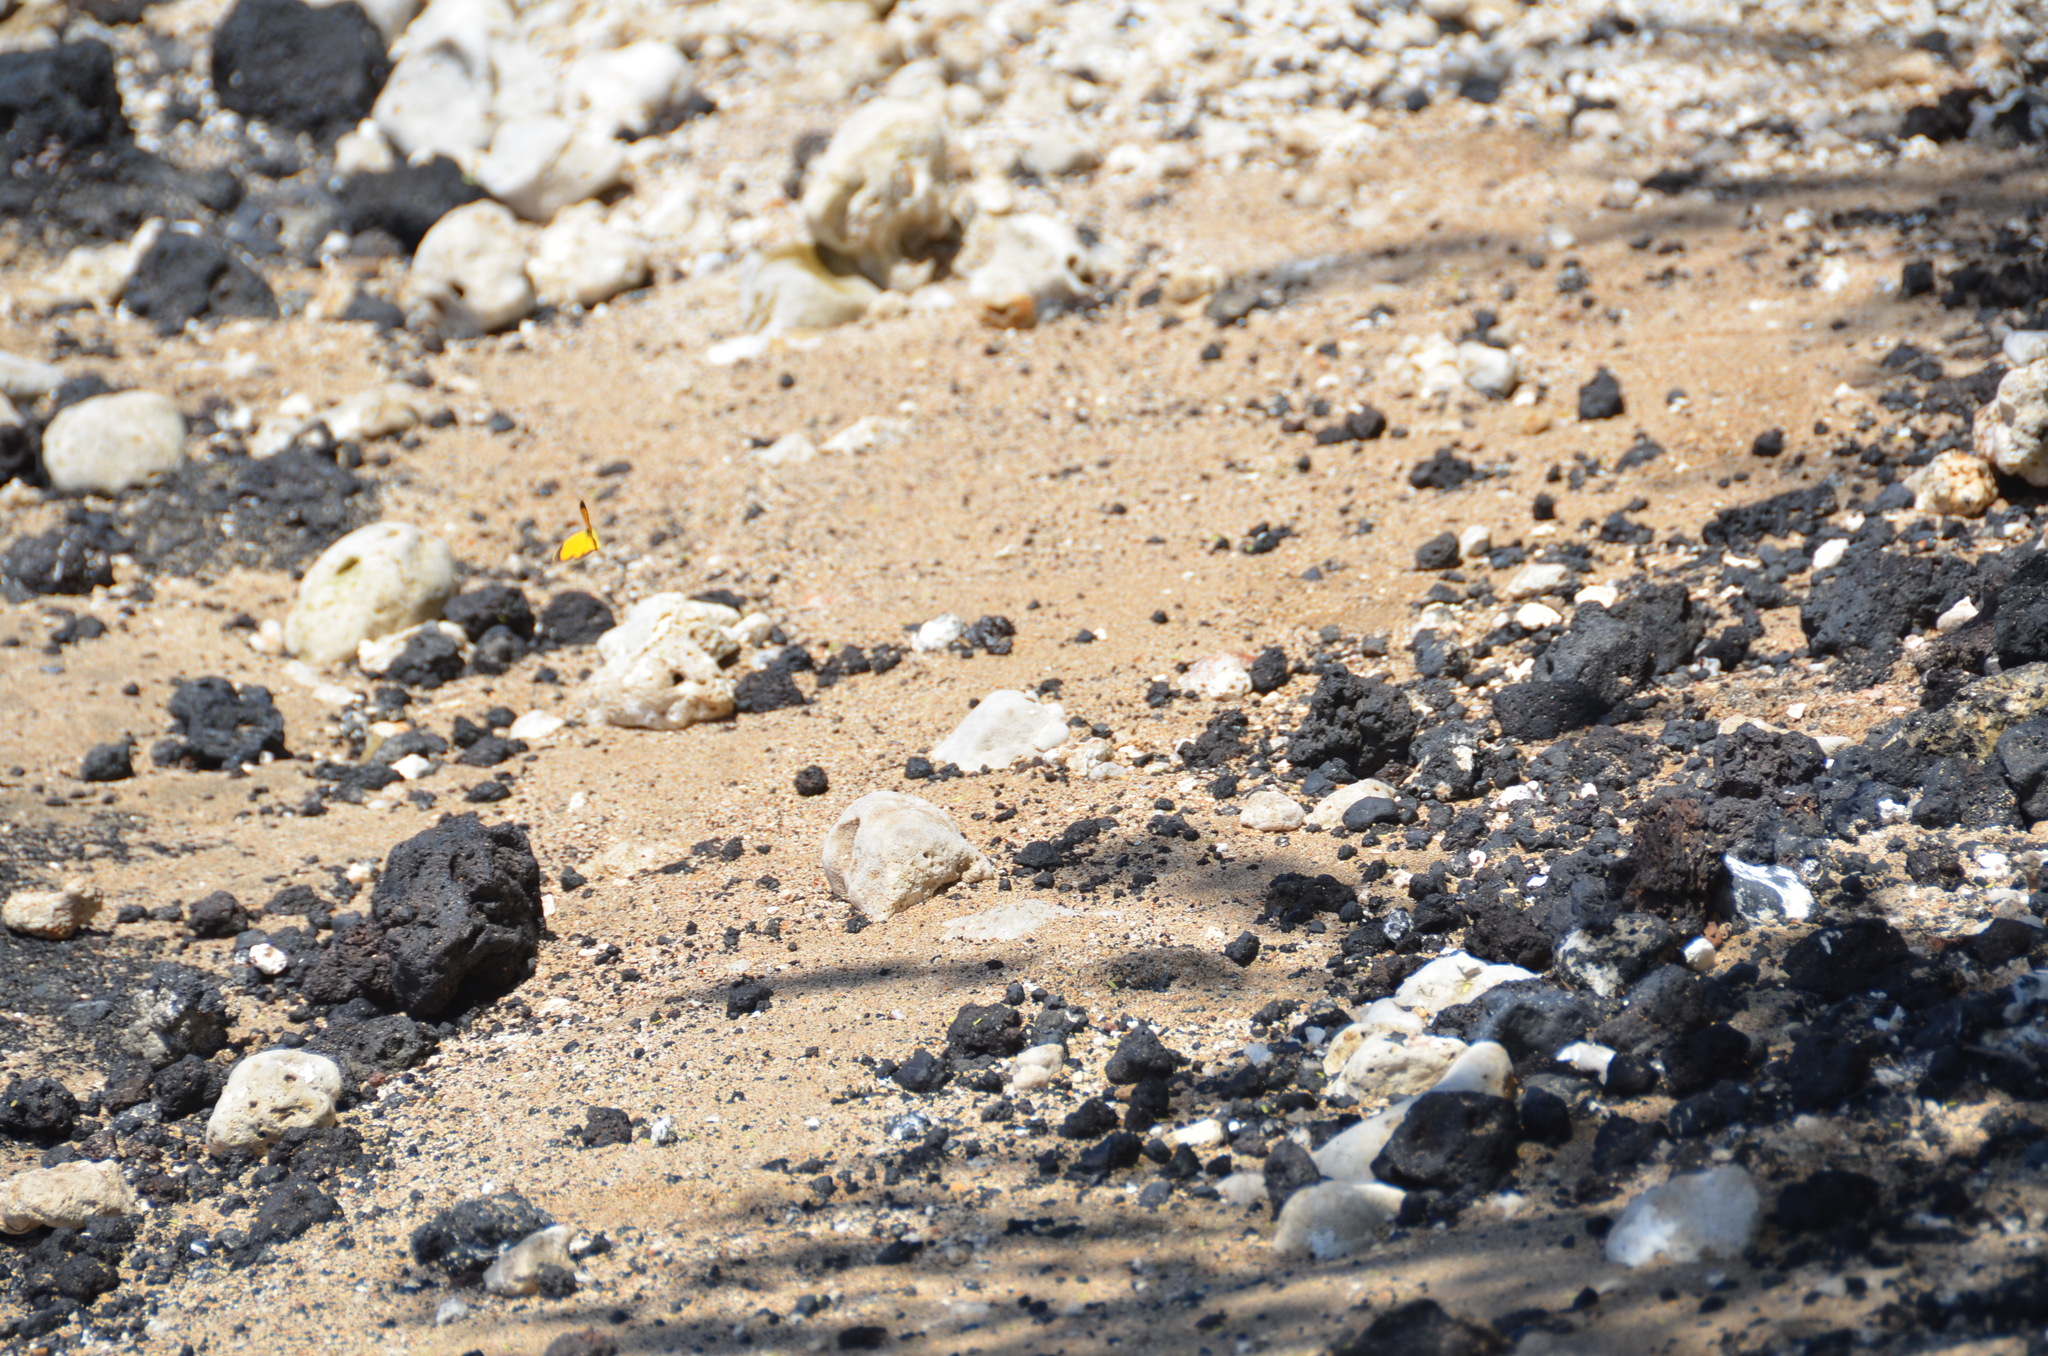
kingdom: Animalia
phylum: Arthropoda
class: Insecta
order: Lepidoptera
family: Pieridae
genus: Abaeis
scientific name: Abaeis nicippe
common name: Sleepy orange
